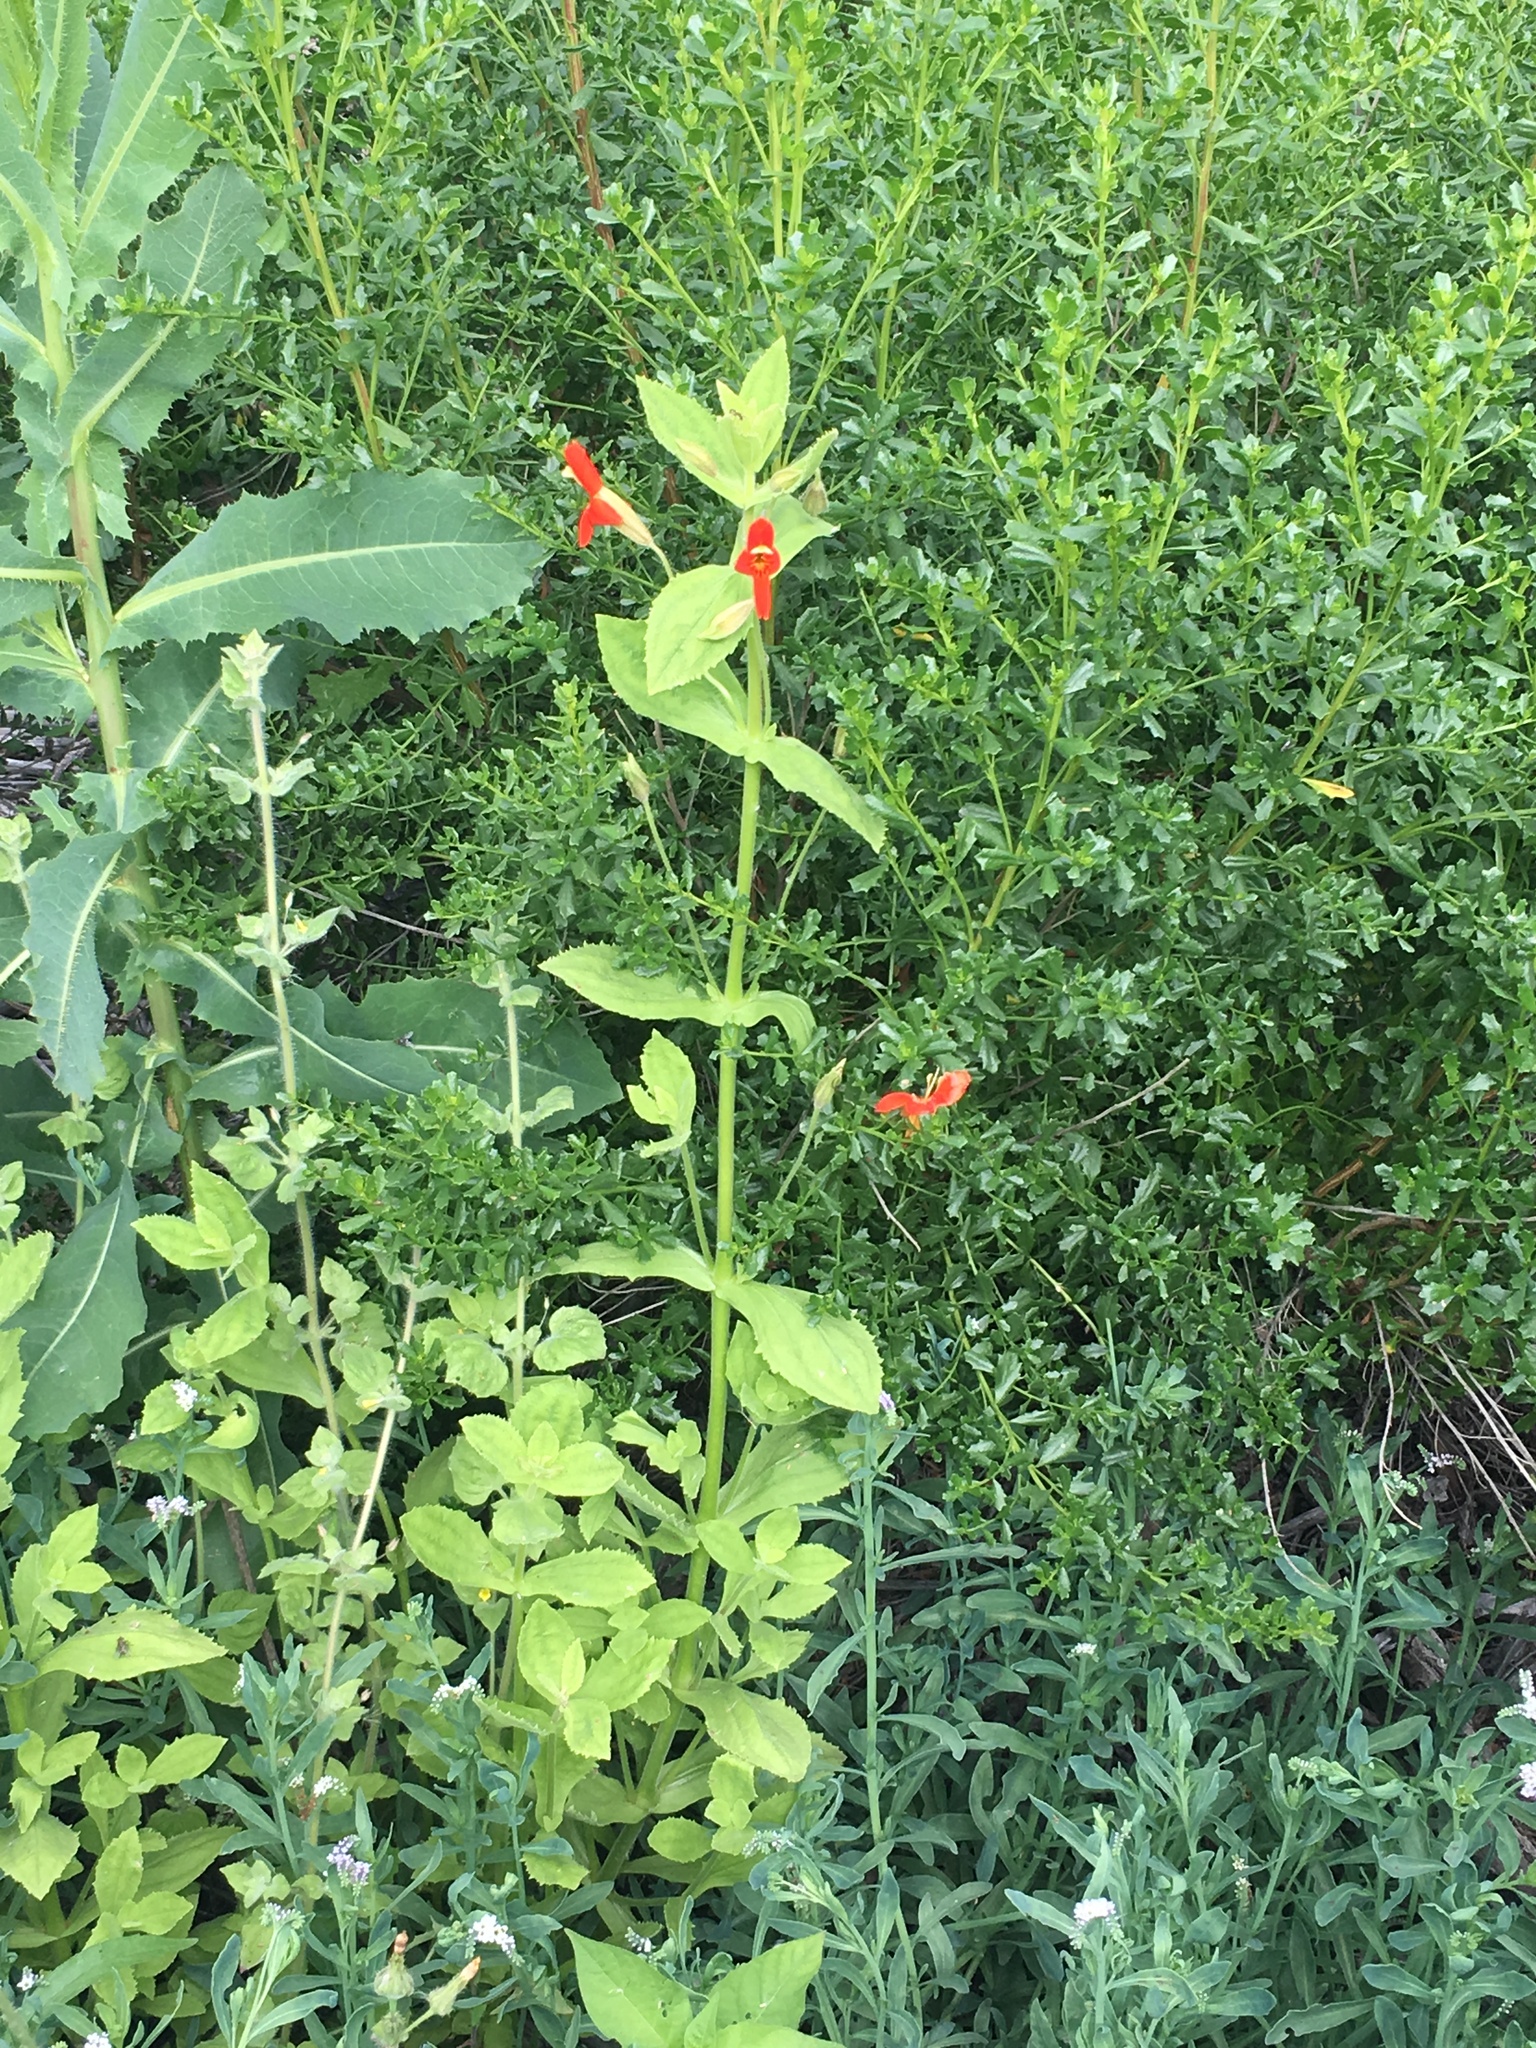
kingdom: Plantae
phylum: Tracheophyta
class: Magnoliopsida
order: Lamiales
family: Phrymaceae
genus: Erythranthe
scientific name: Erythranthe cardinalis
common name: Scarlet monkey-flower
